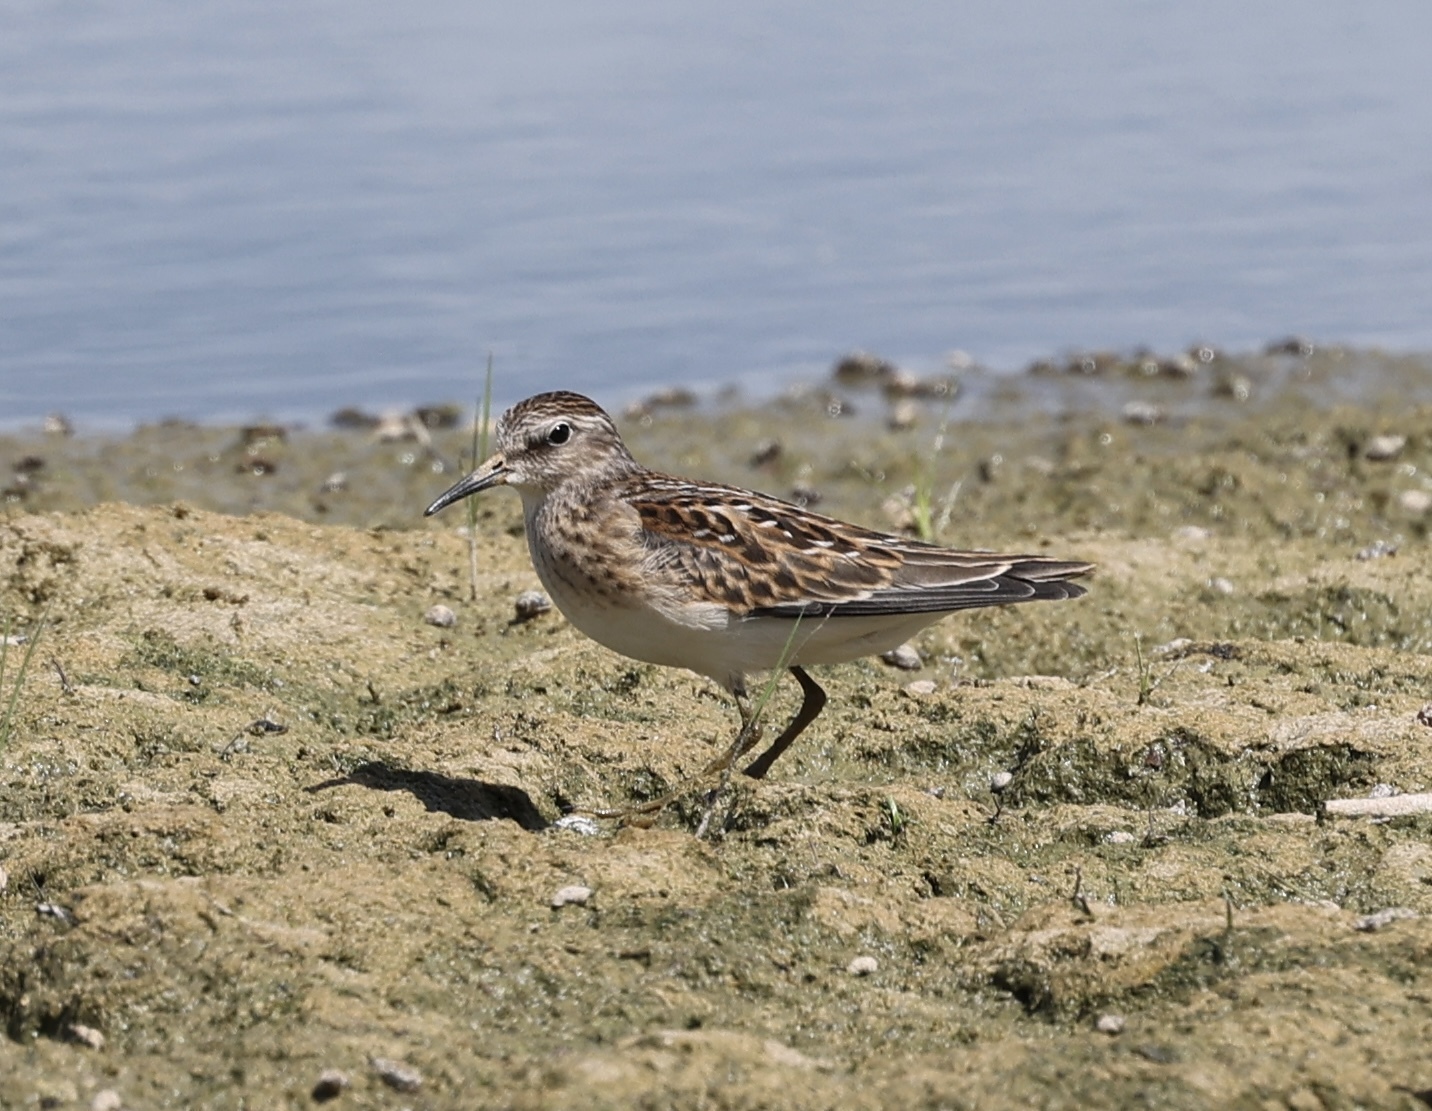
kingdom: Animalia
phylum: Chordata
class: Aves
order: Charadriiformes
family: Scolopacidae
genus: Calidris
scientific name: Calidris minutilla
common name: Least sandpiper
